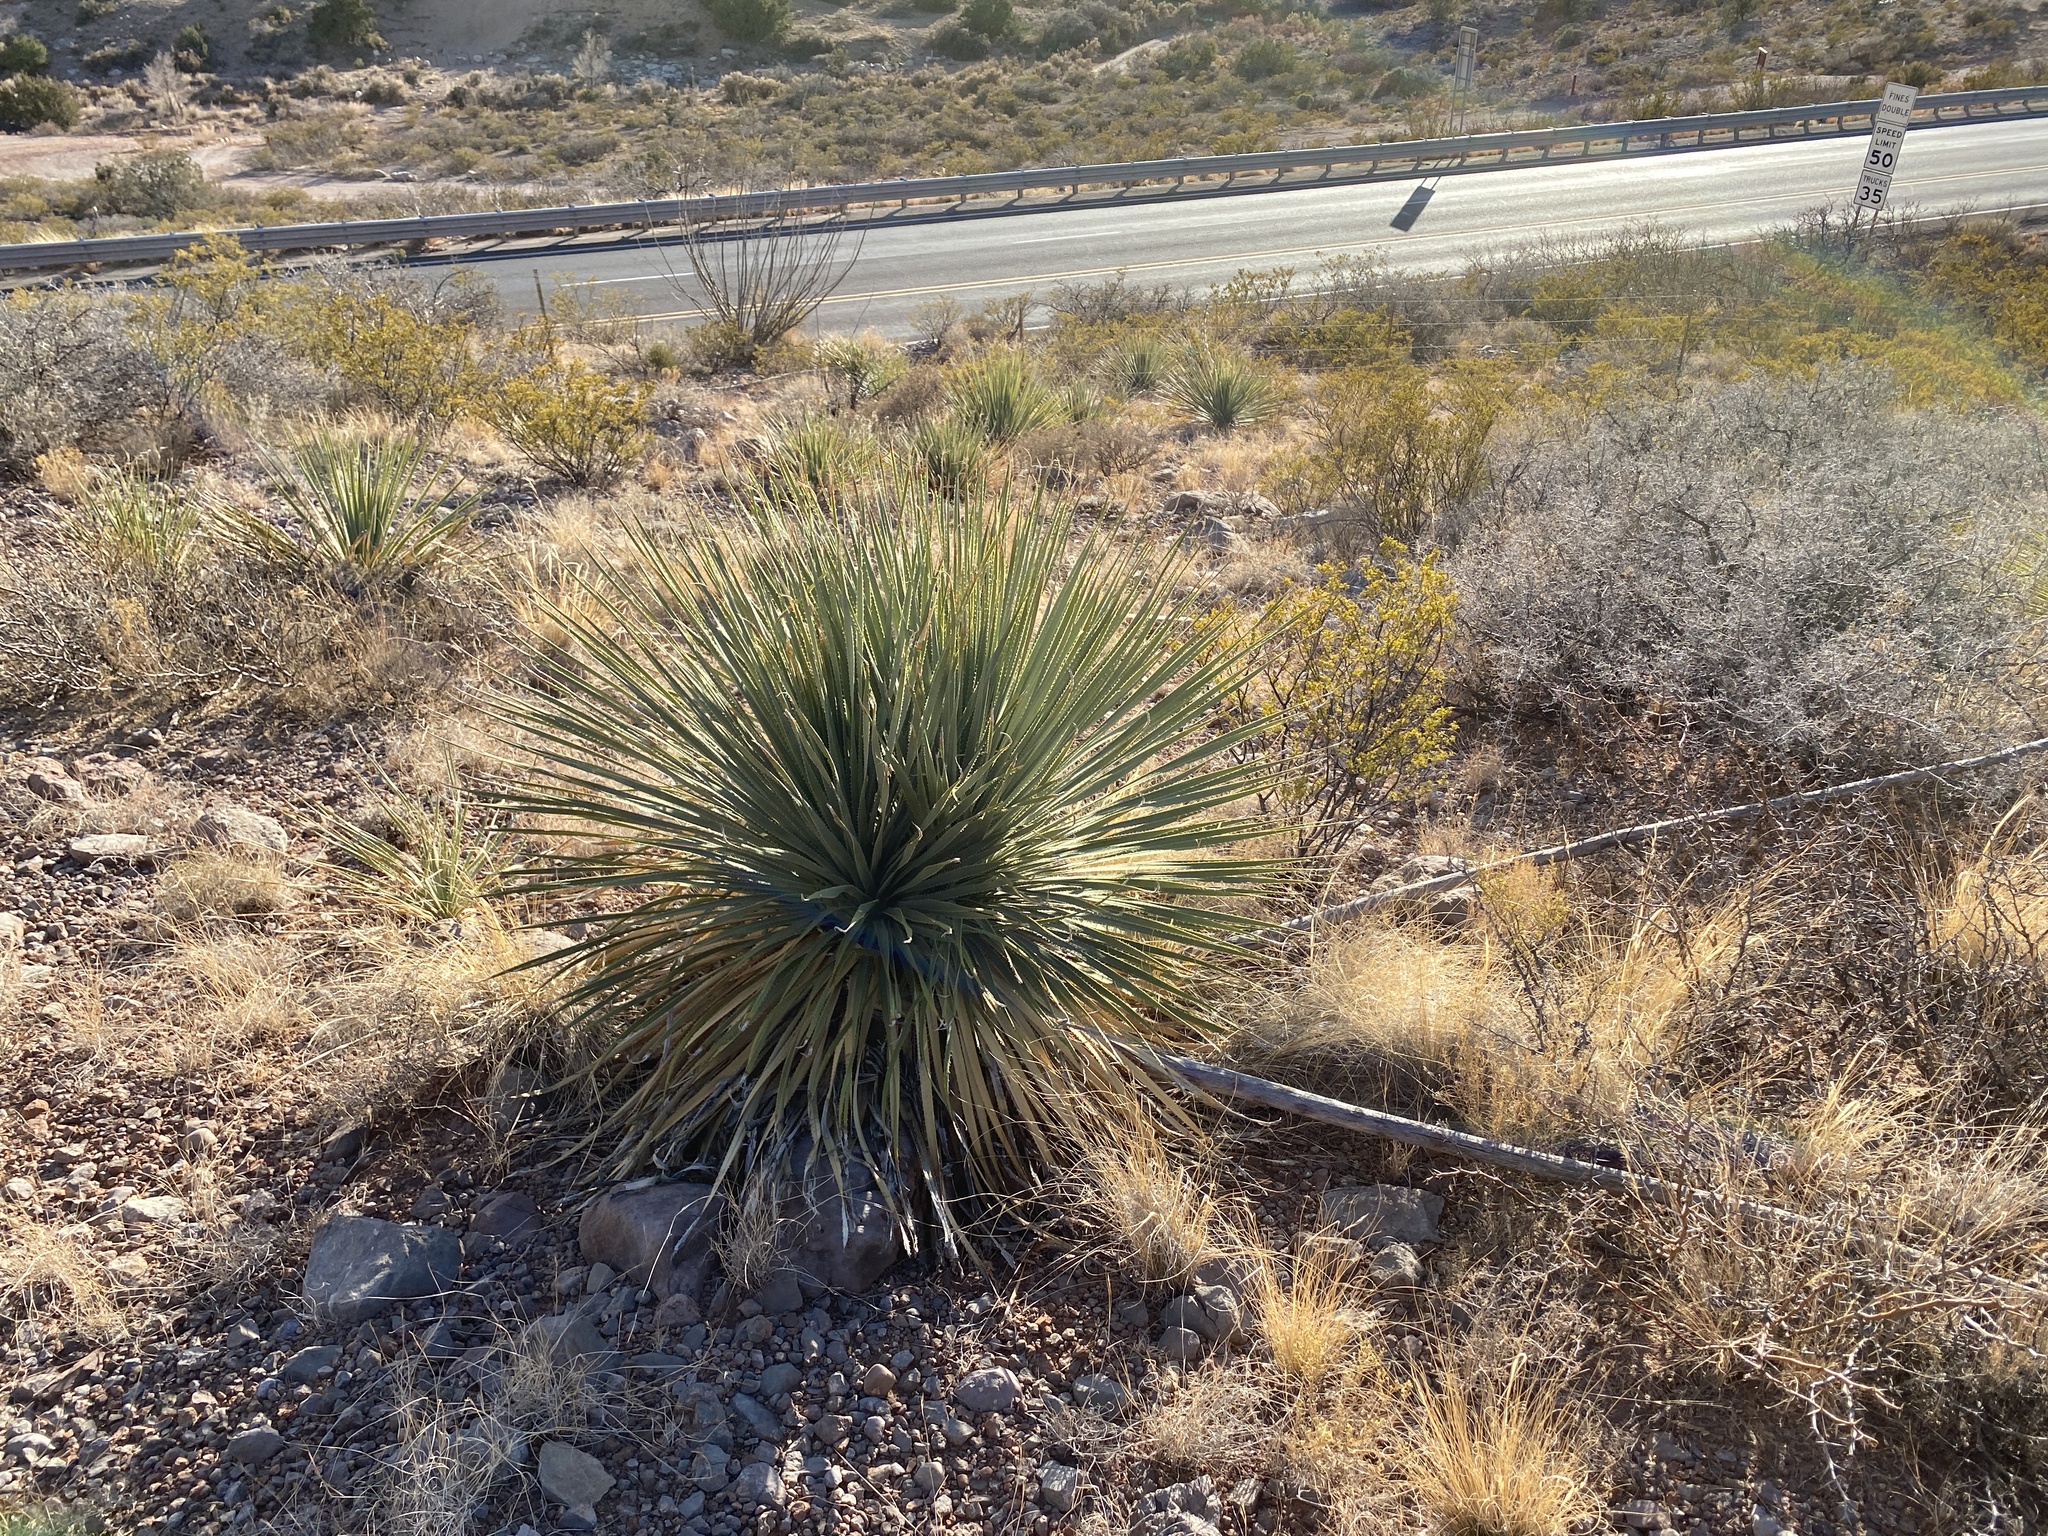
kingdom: Plantae
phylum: Tracheophyta
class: Liliopsida
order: Asparagales
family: Asparagaceae
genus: Dasylirion
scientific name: Dasylirion wheeleri
